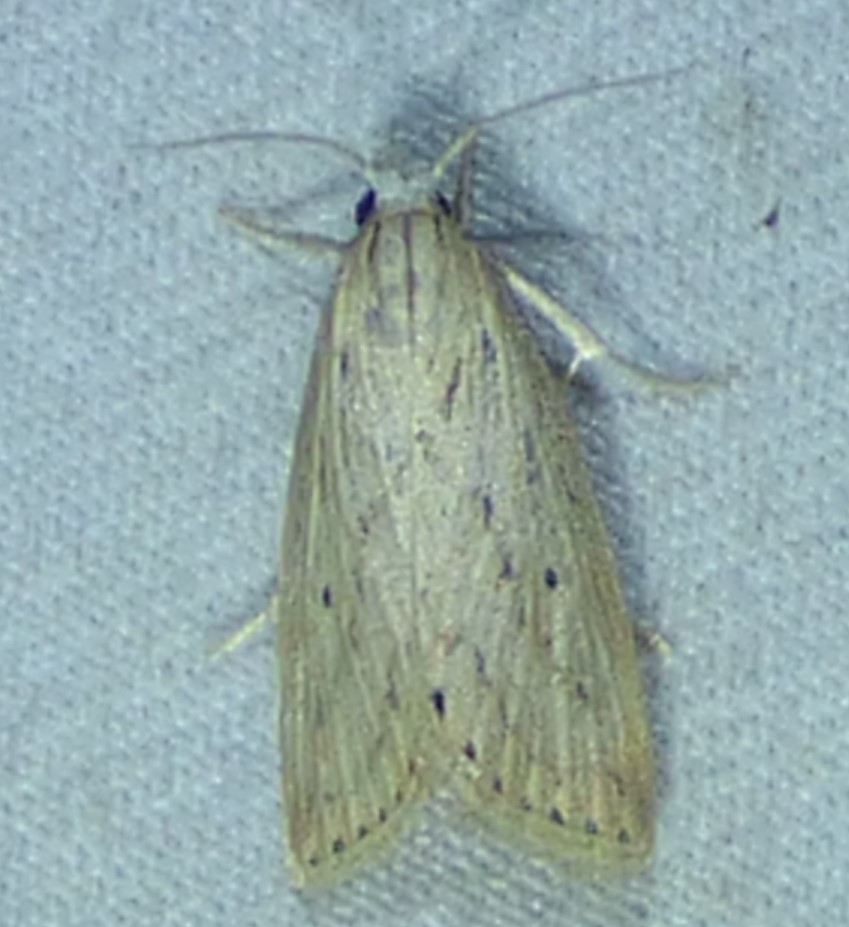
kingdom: Animalia
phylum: Arthropoda
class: Insecta
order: Lepidoptera
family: Crambidae
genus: Diatraea
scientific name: Diatraea lisetta
